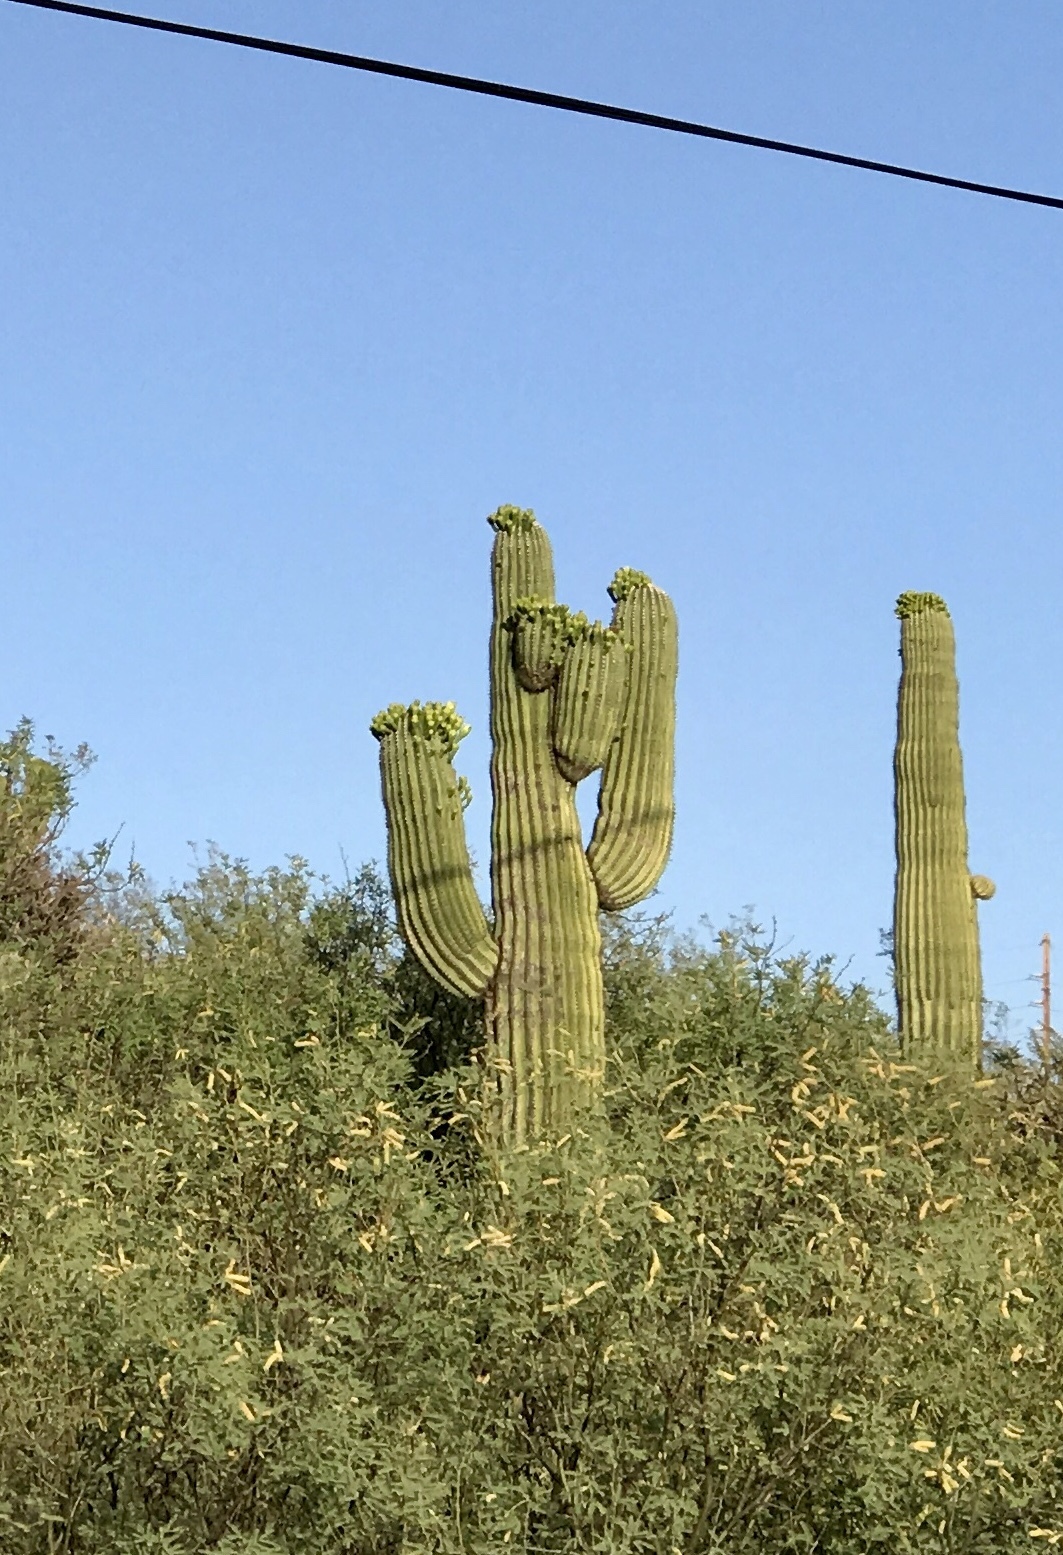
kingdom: Plantae
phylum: Tracheophyta
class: Magnoliopsida
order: Caryophyllales
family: Cactaceae
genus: Carnegiea
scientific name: Carnegiea gigantea
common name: Saguaro
